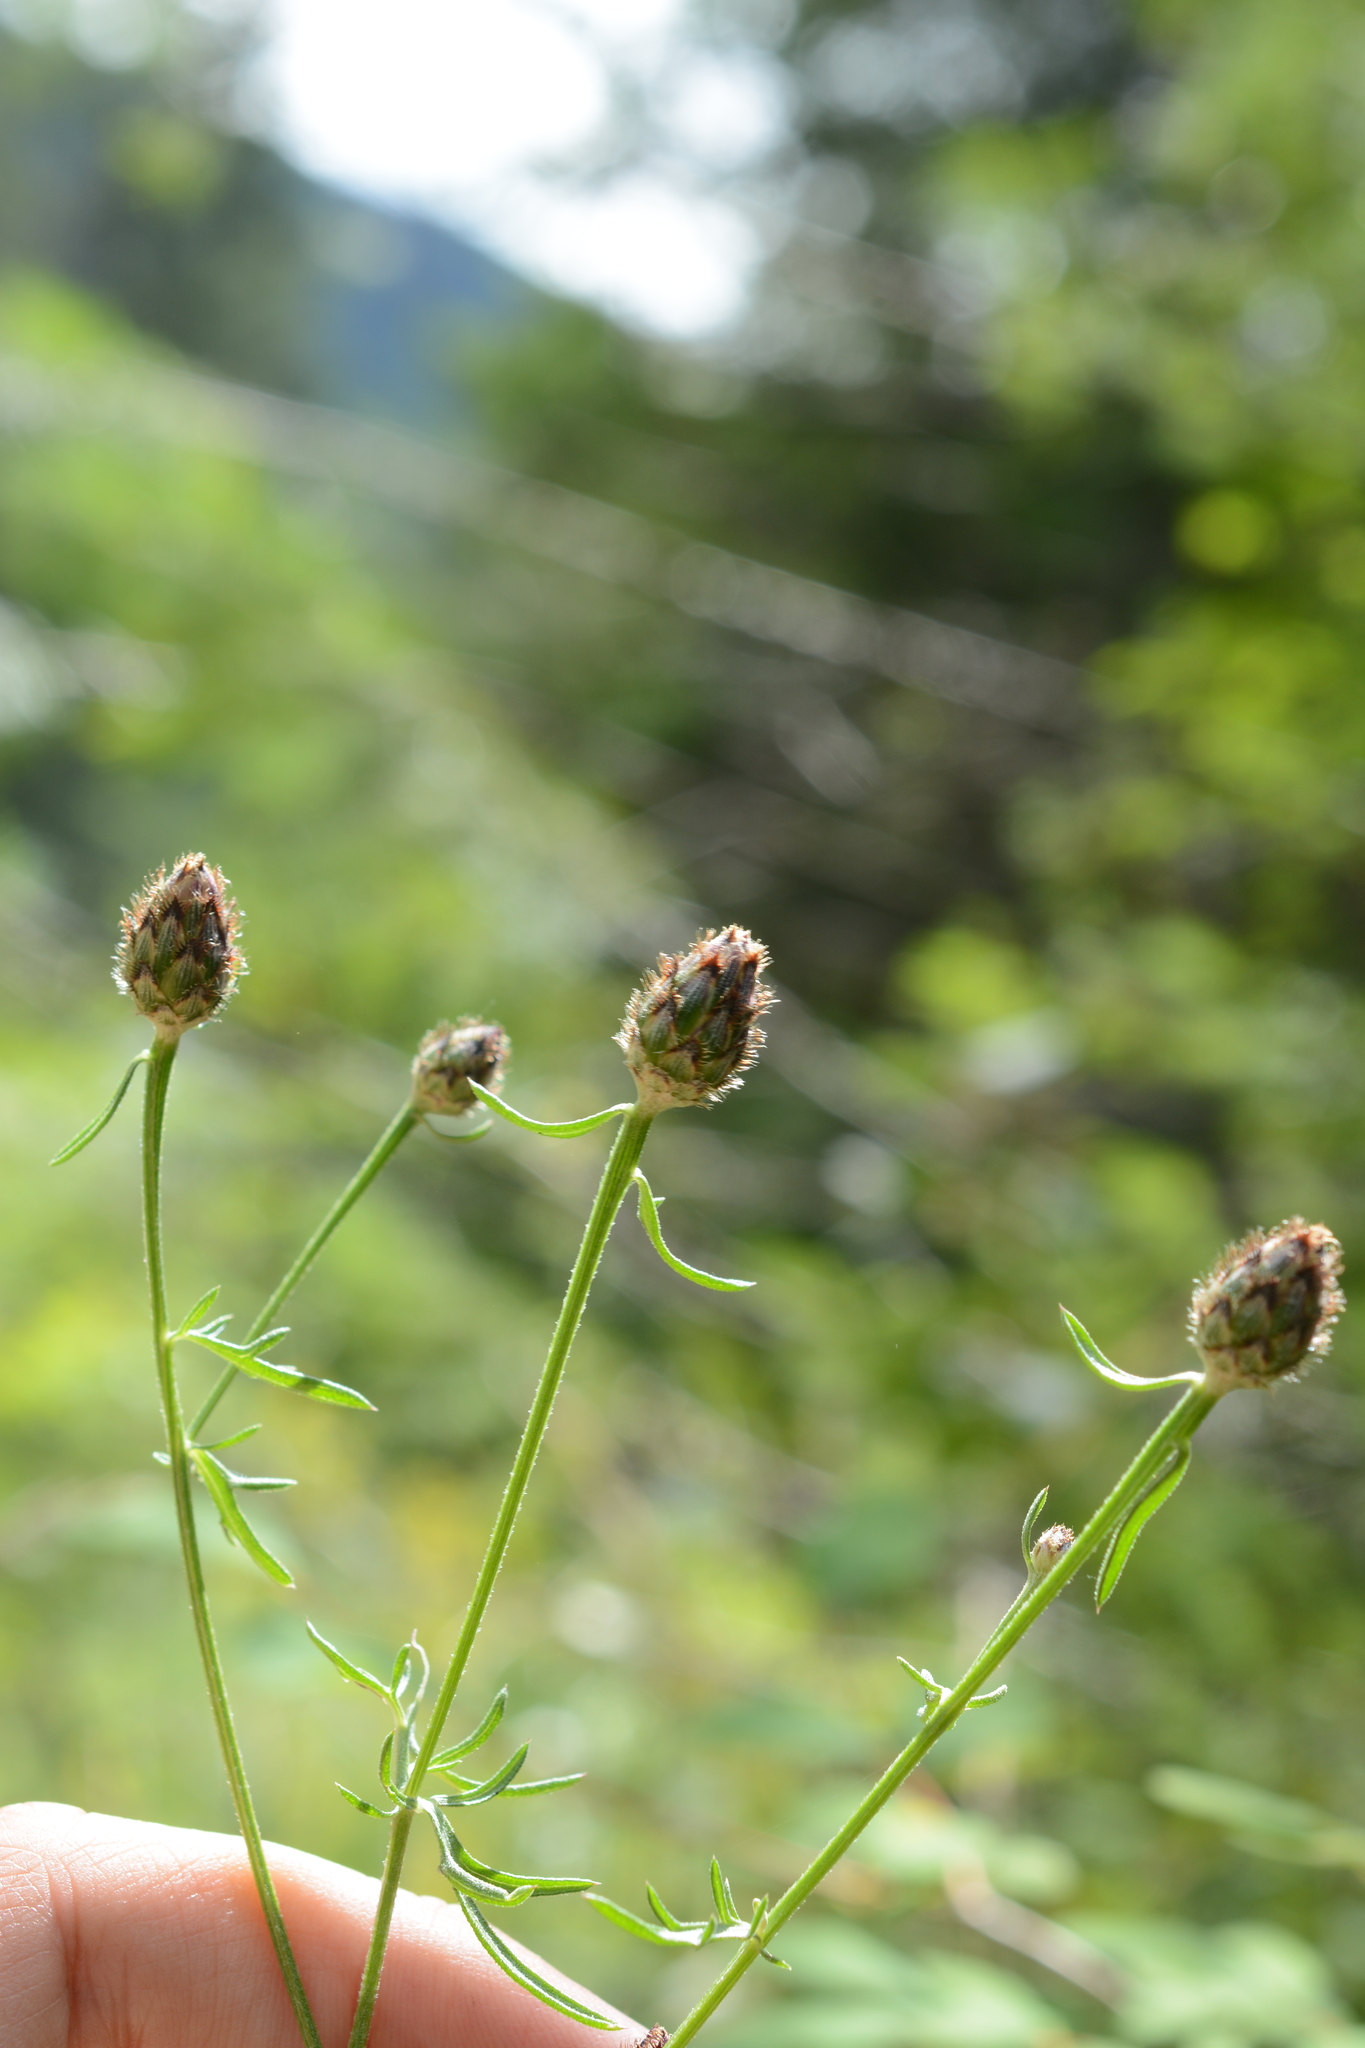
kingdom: Plantae
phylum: Tracheophyta
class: Magnoliopsida
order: Asterales
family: Asteraceae
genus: Centaurea
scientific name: Centaurea stoebe
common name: Spotted knapweed
